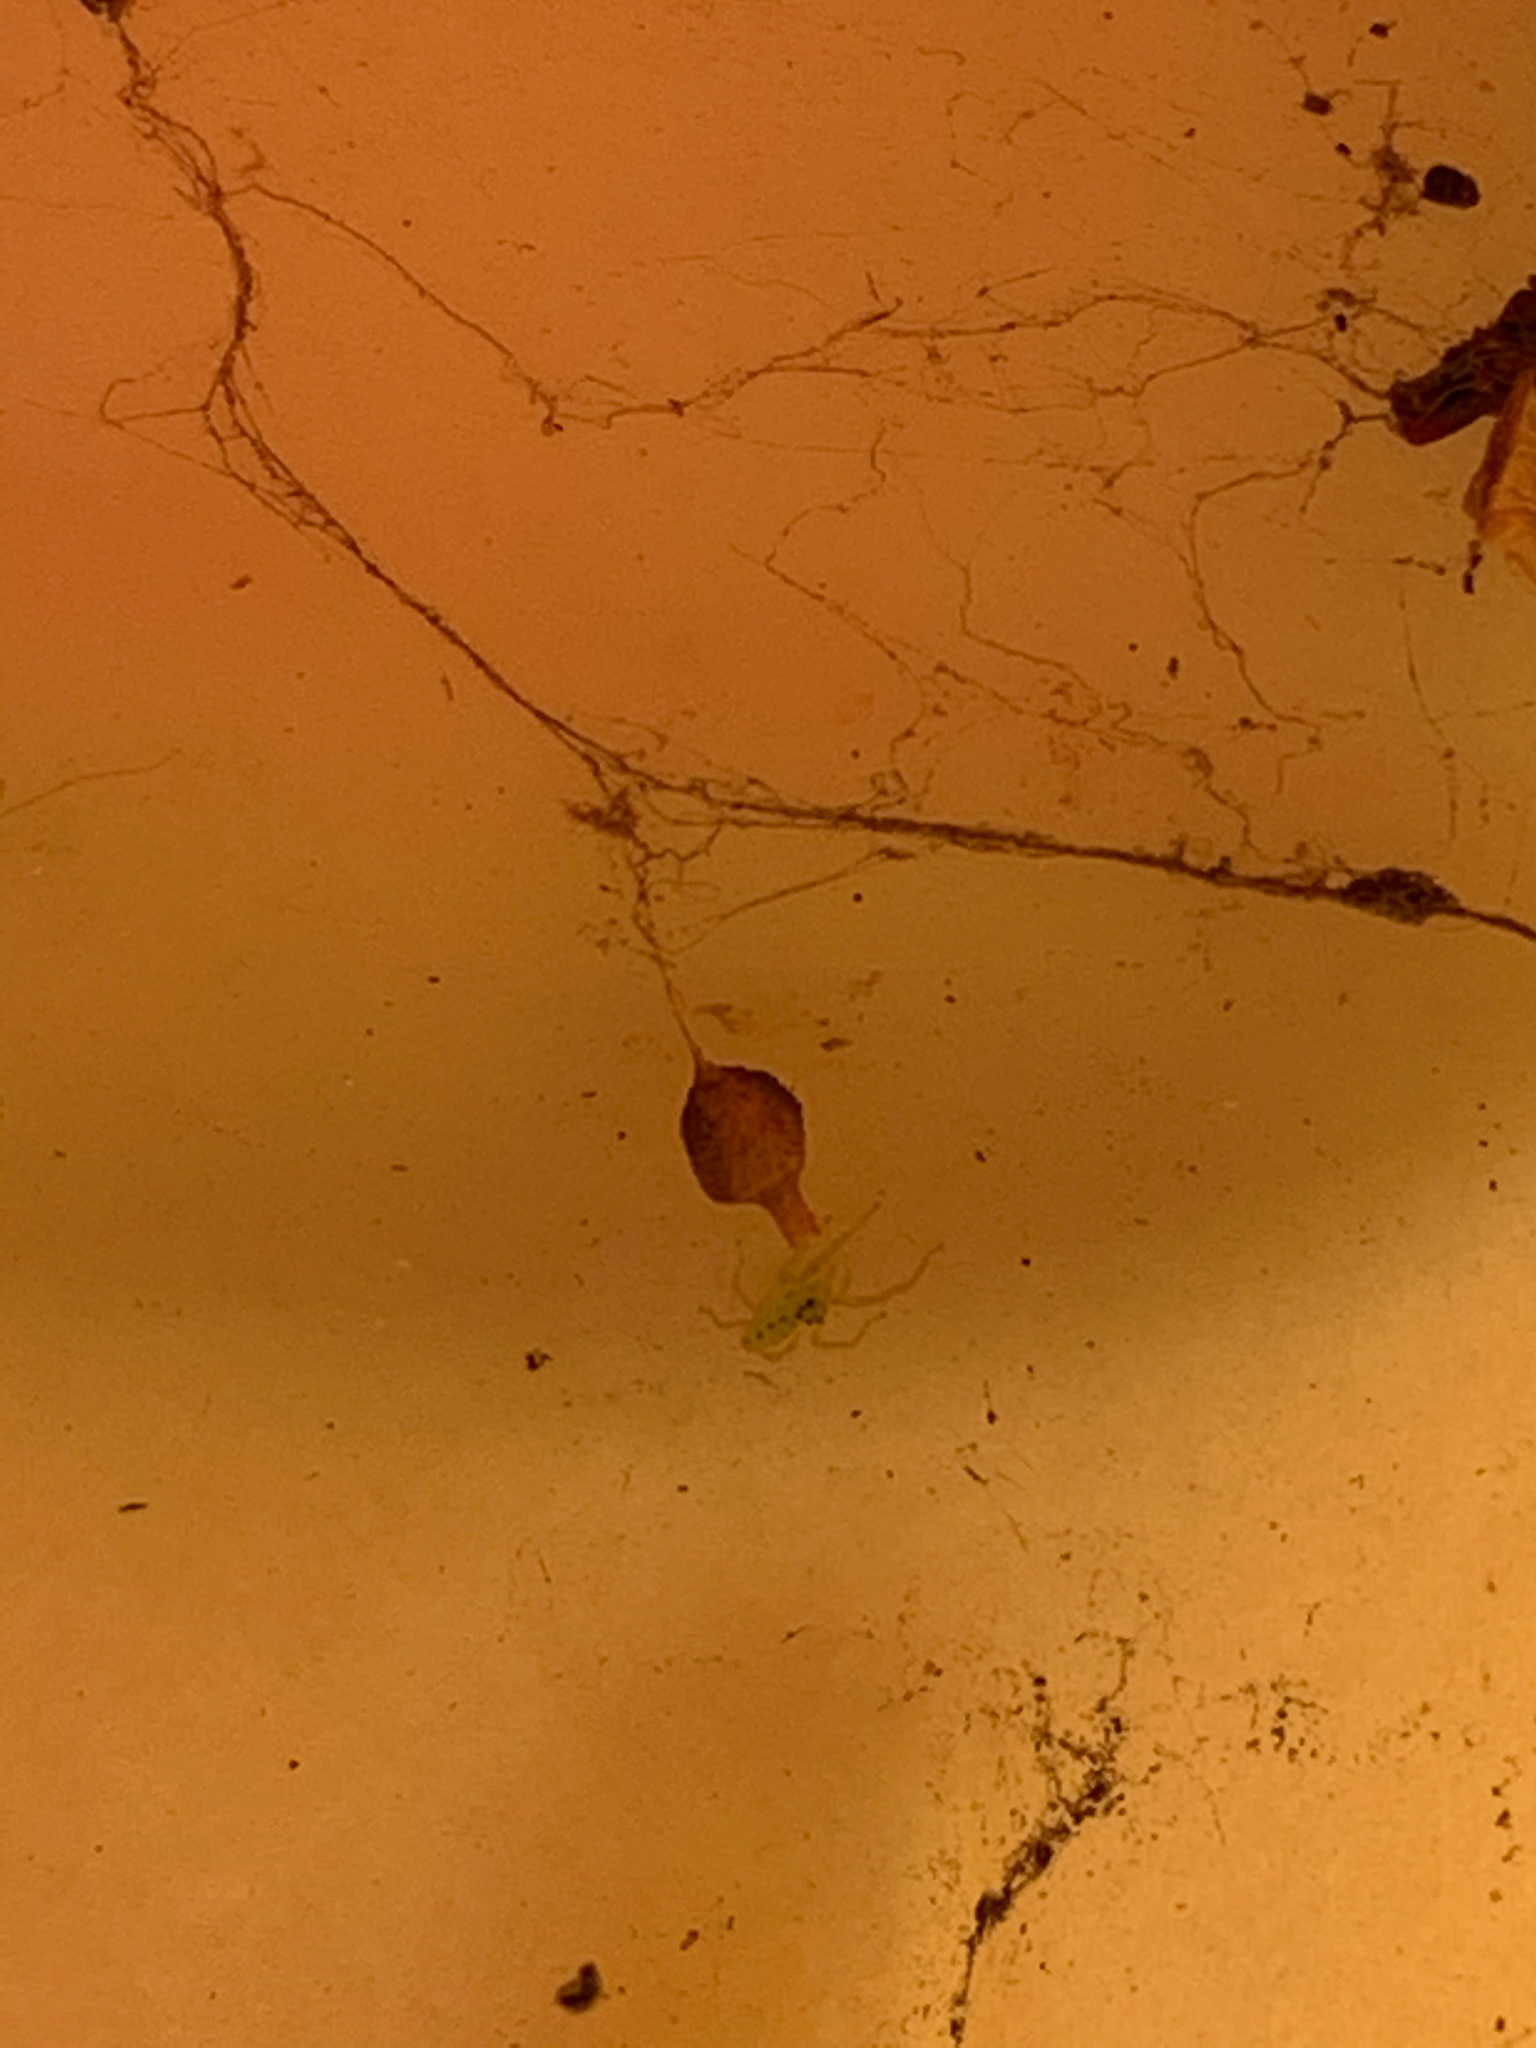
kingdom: Animalia
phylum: Arthropoda
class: Arachnida
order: Araneae
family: Salticidae
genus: Lyssomanes
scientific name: Lyssomanes viridis
